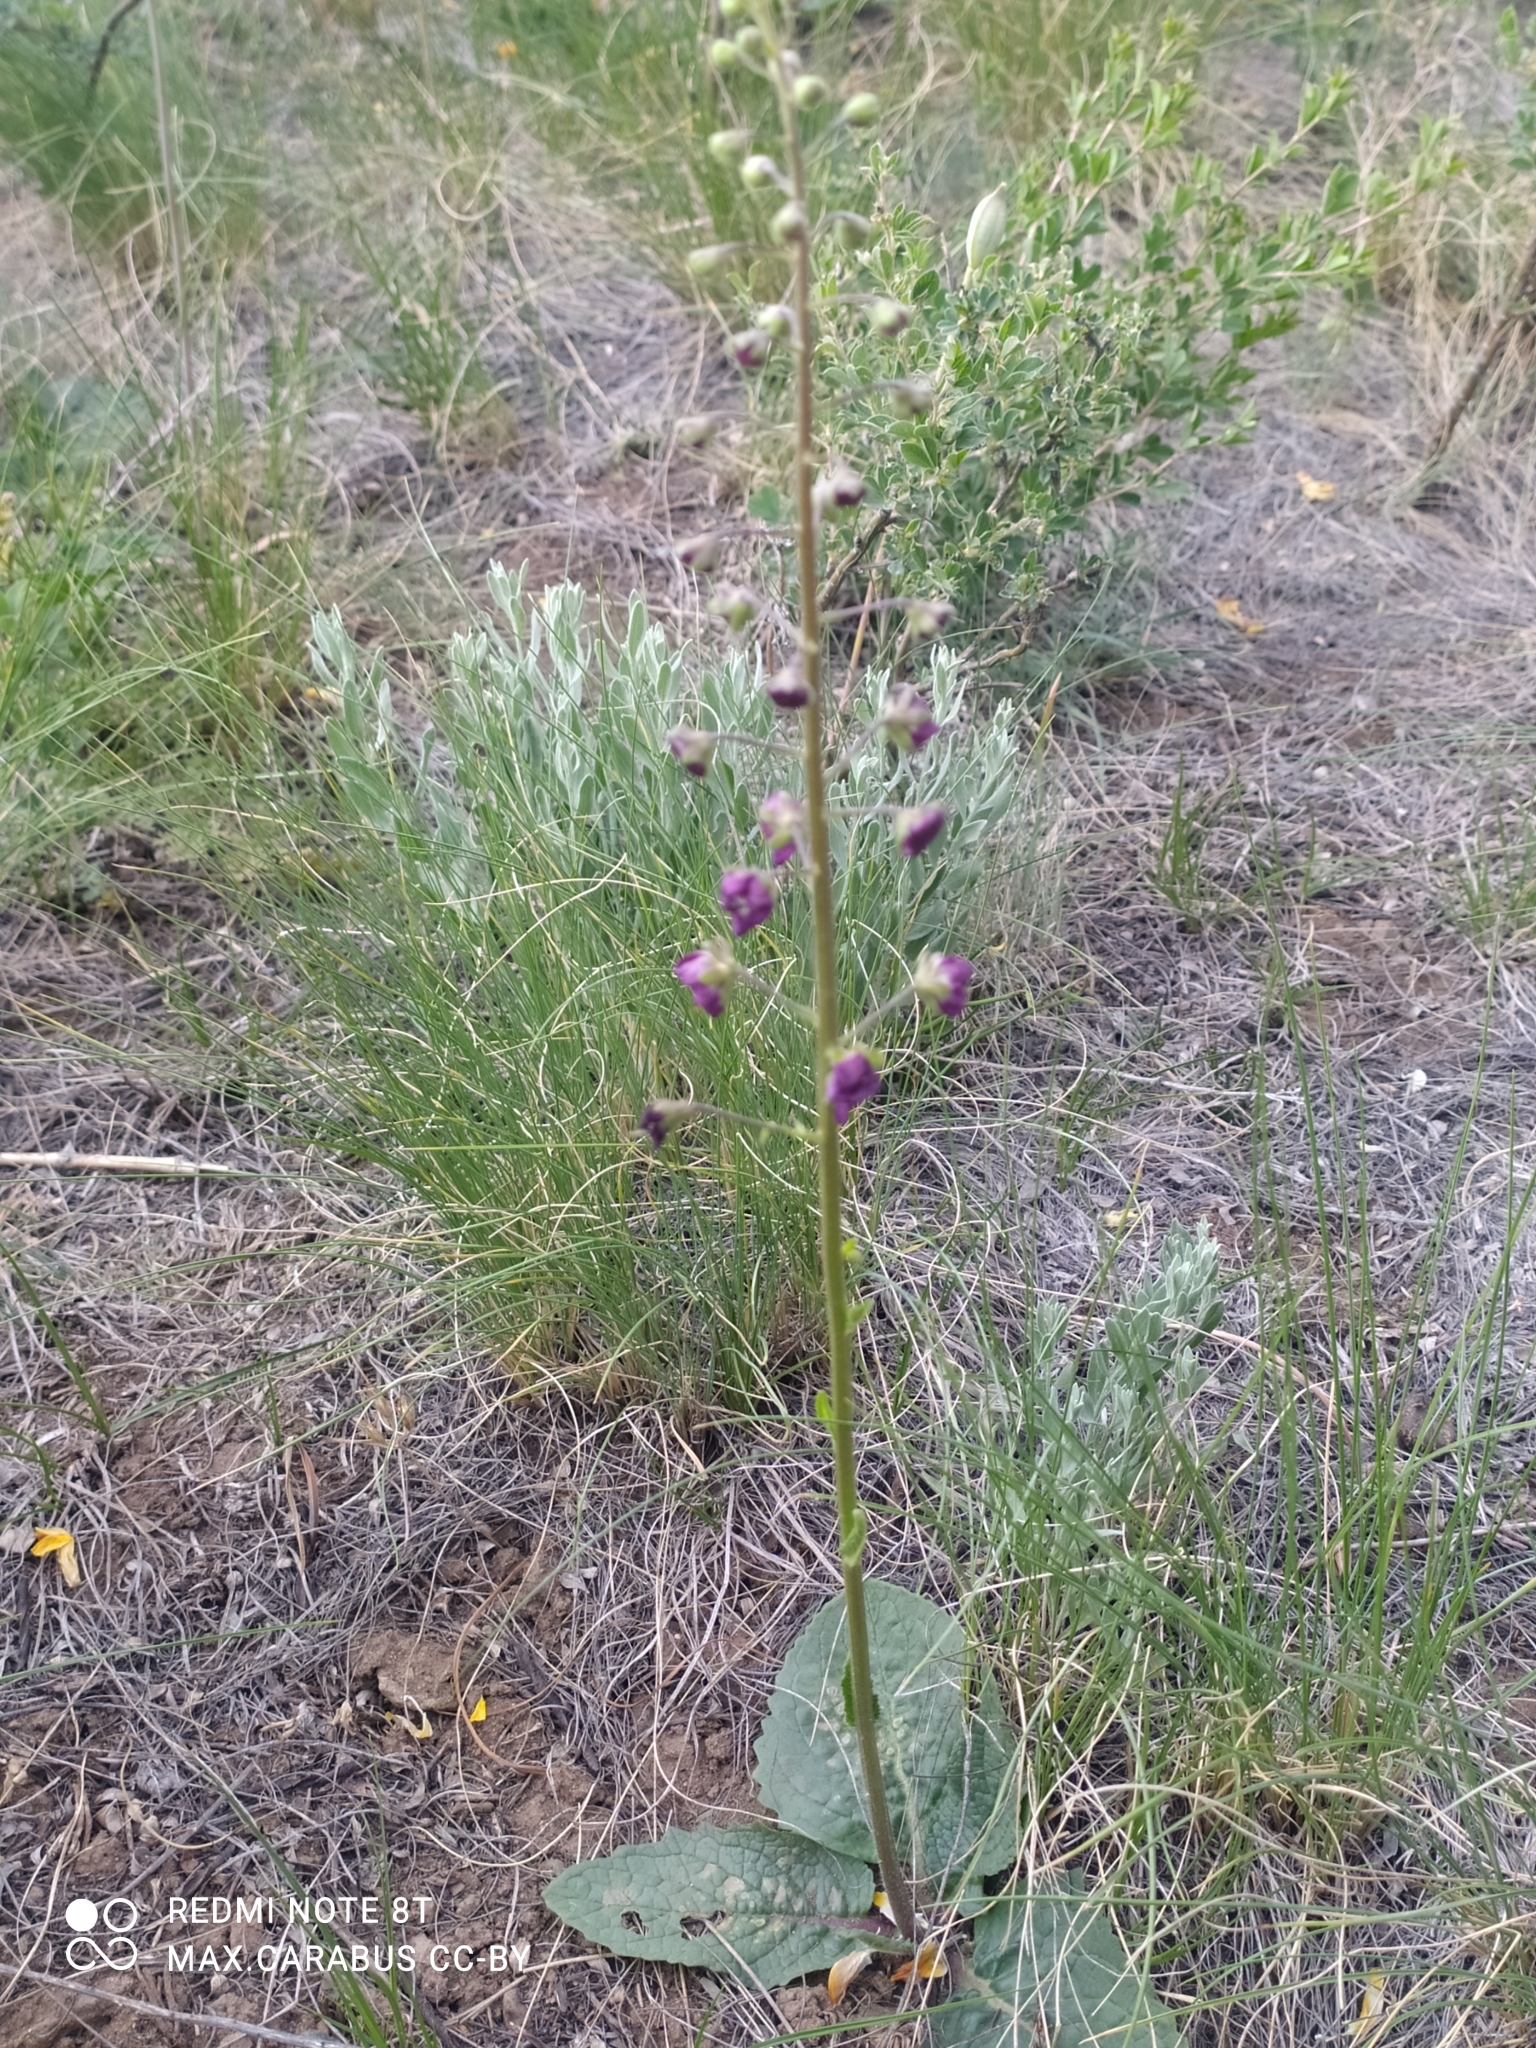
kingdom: Plantae
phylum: Tracheophyta
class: Magnoliopsida
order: Lamiales
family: Scrophulariaceae
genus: Verbascum
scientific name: Verbascum phoeniceum
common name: Purple mullein
